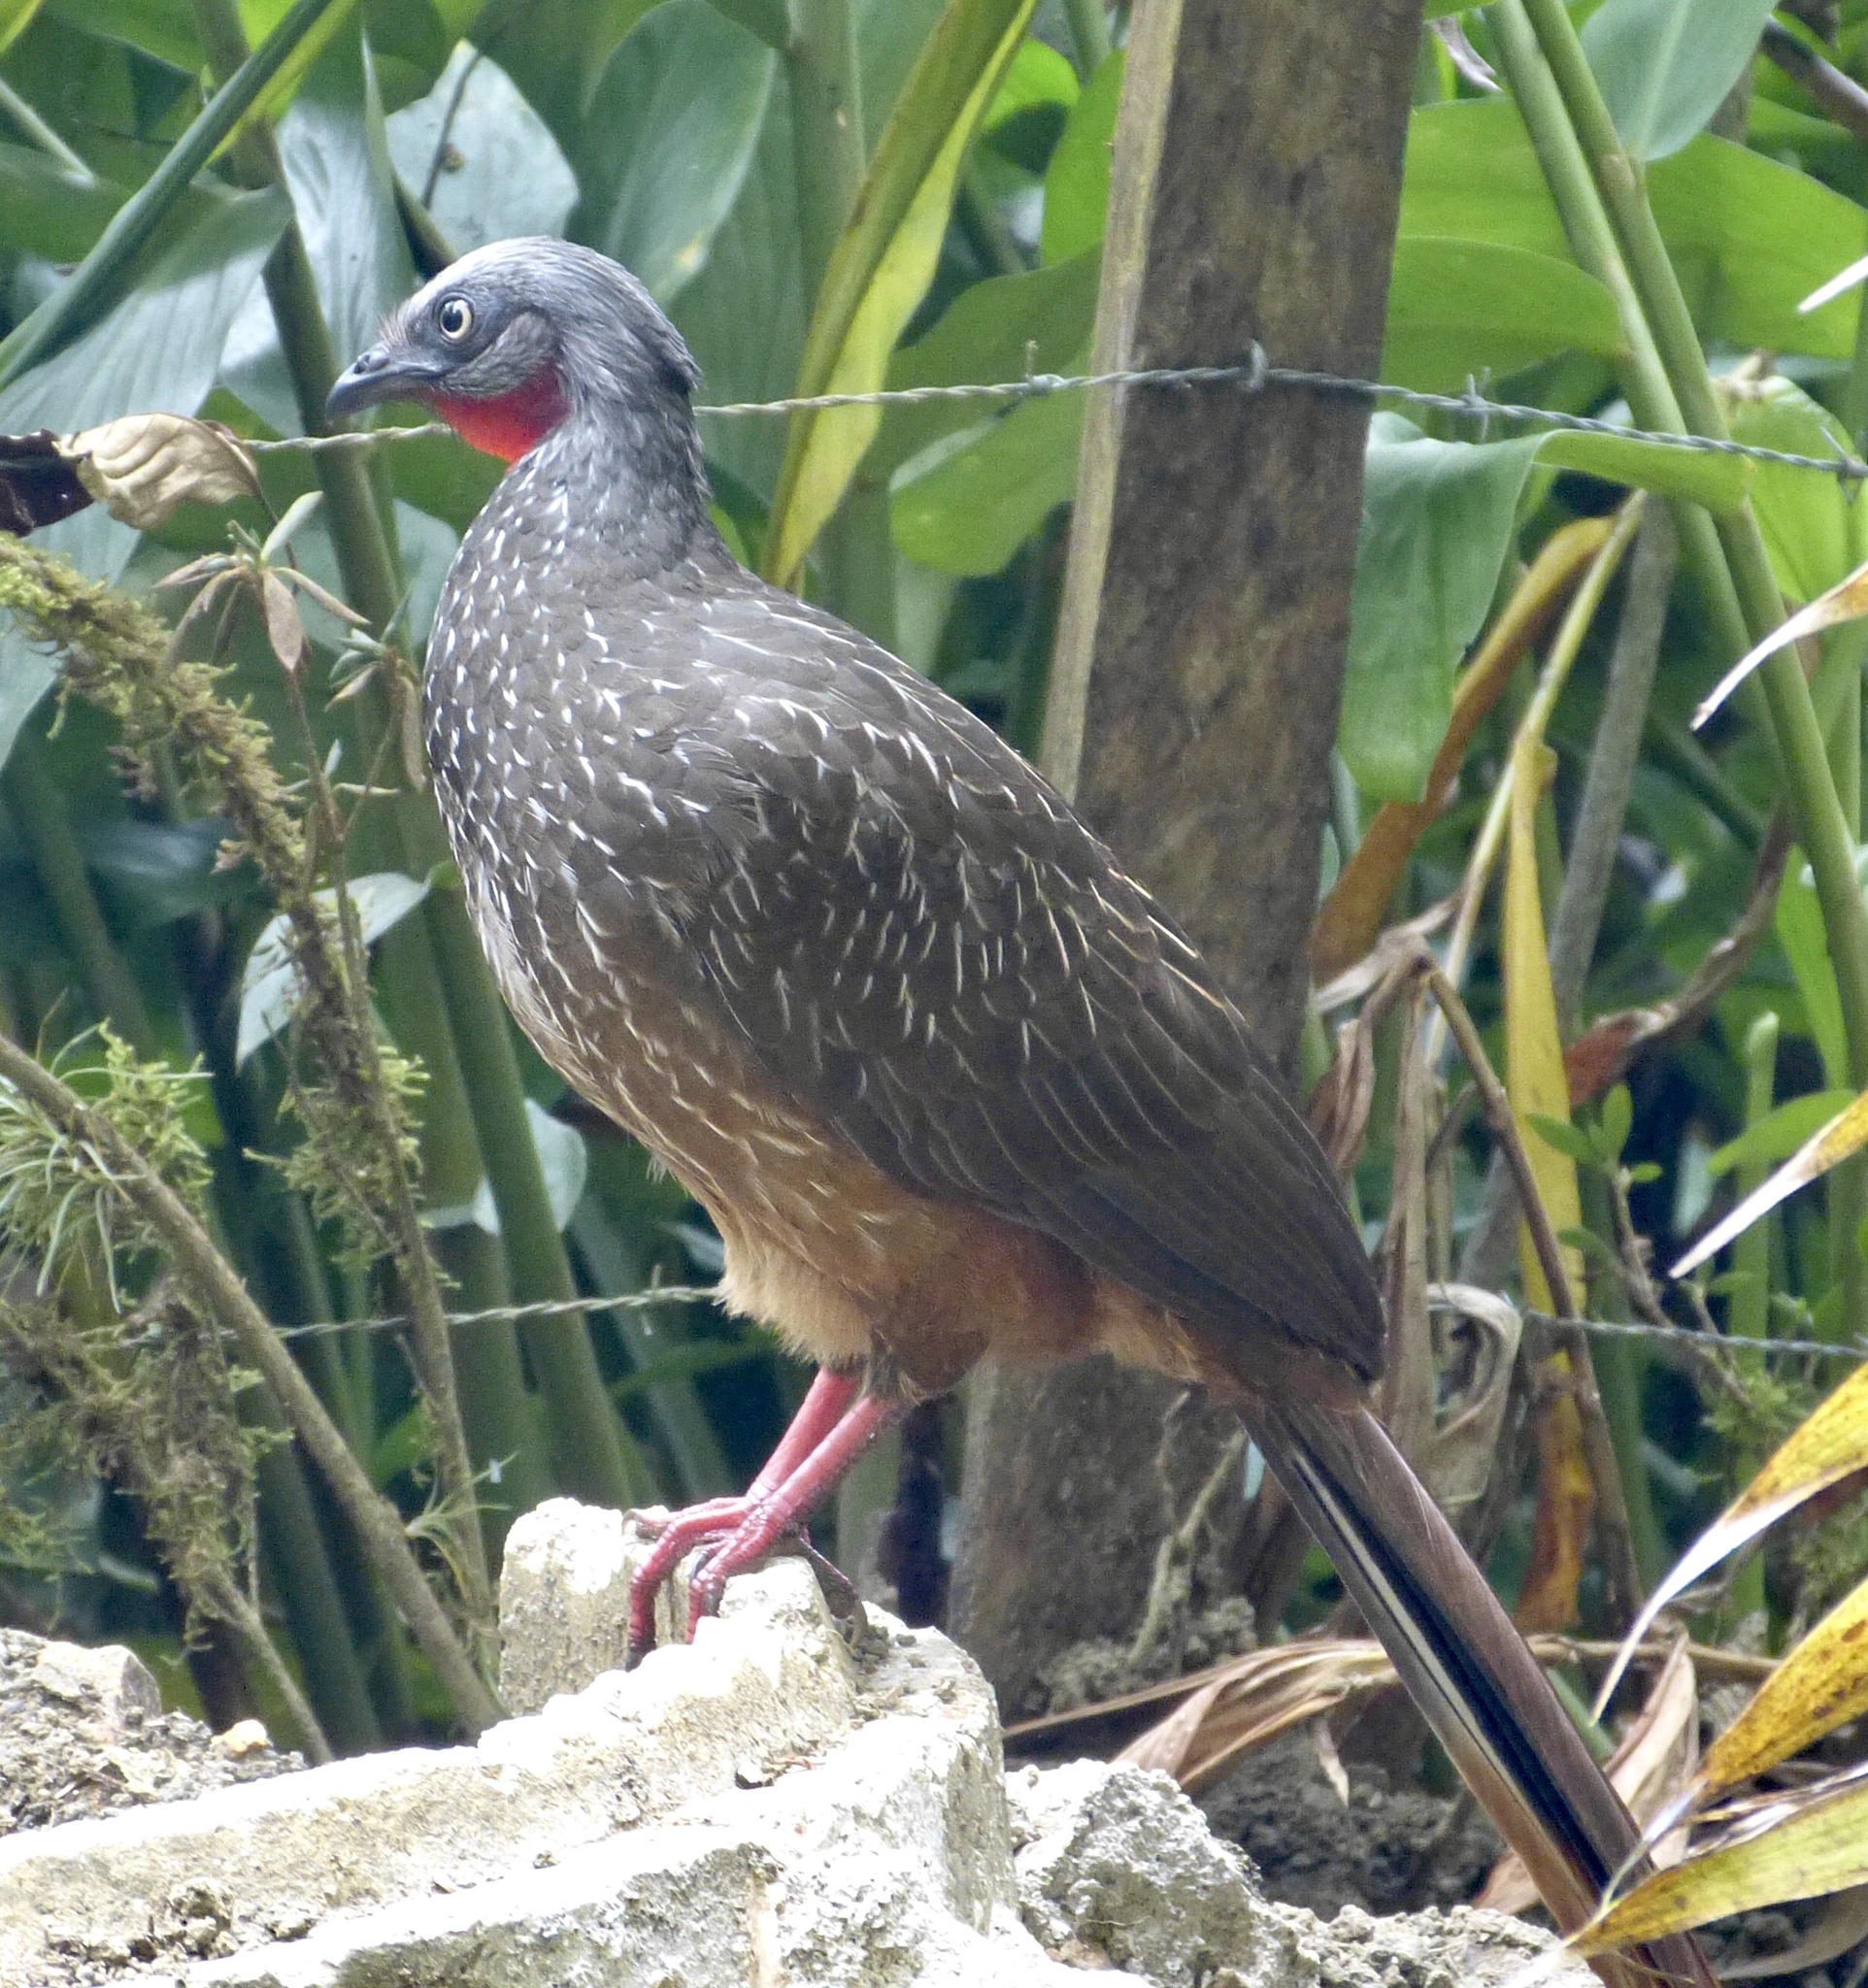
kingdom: Animalia
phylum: Chordata
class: Aves
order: Galliformes
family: Cracidae
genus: Penelope
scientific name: Penelope argyrotis
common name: Band-tailed guan
